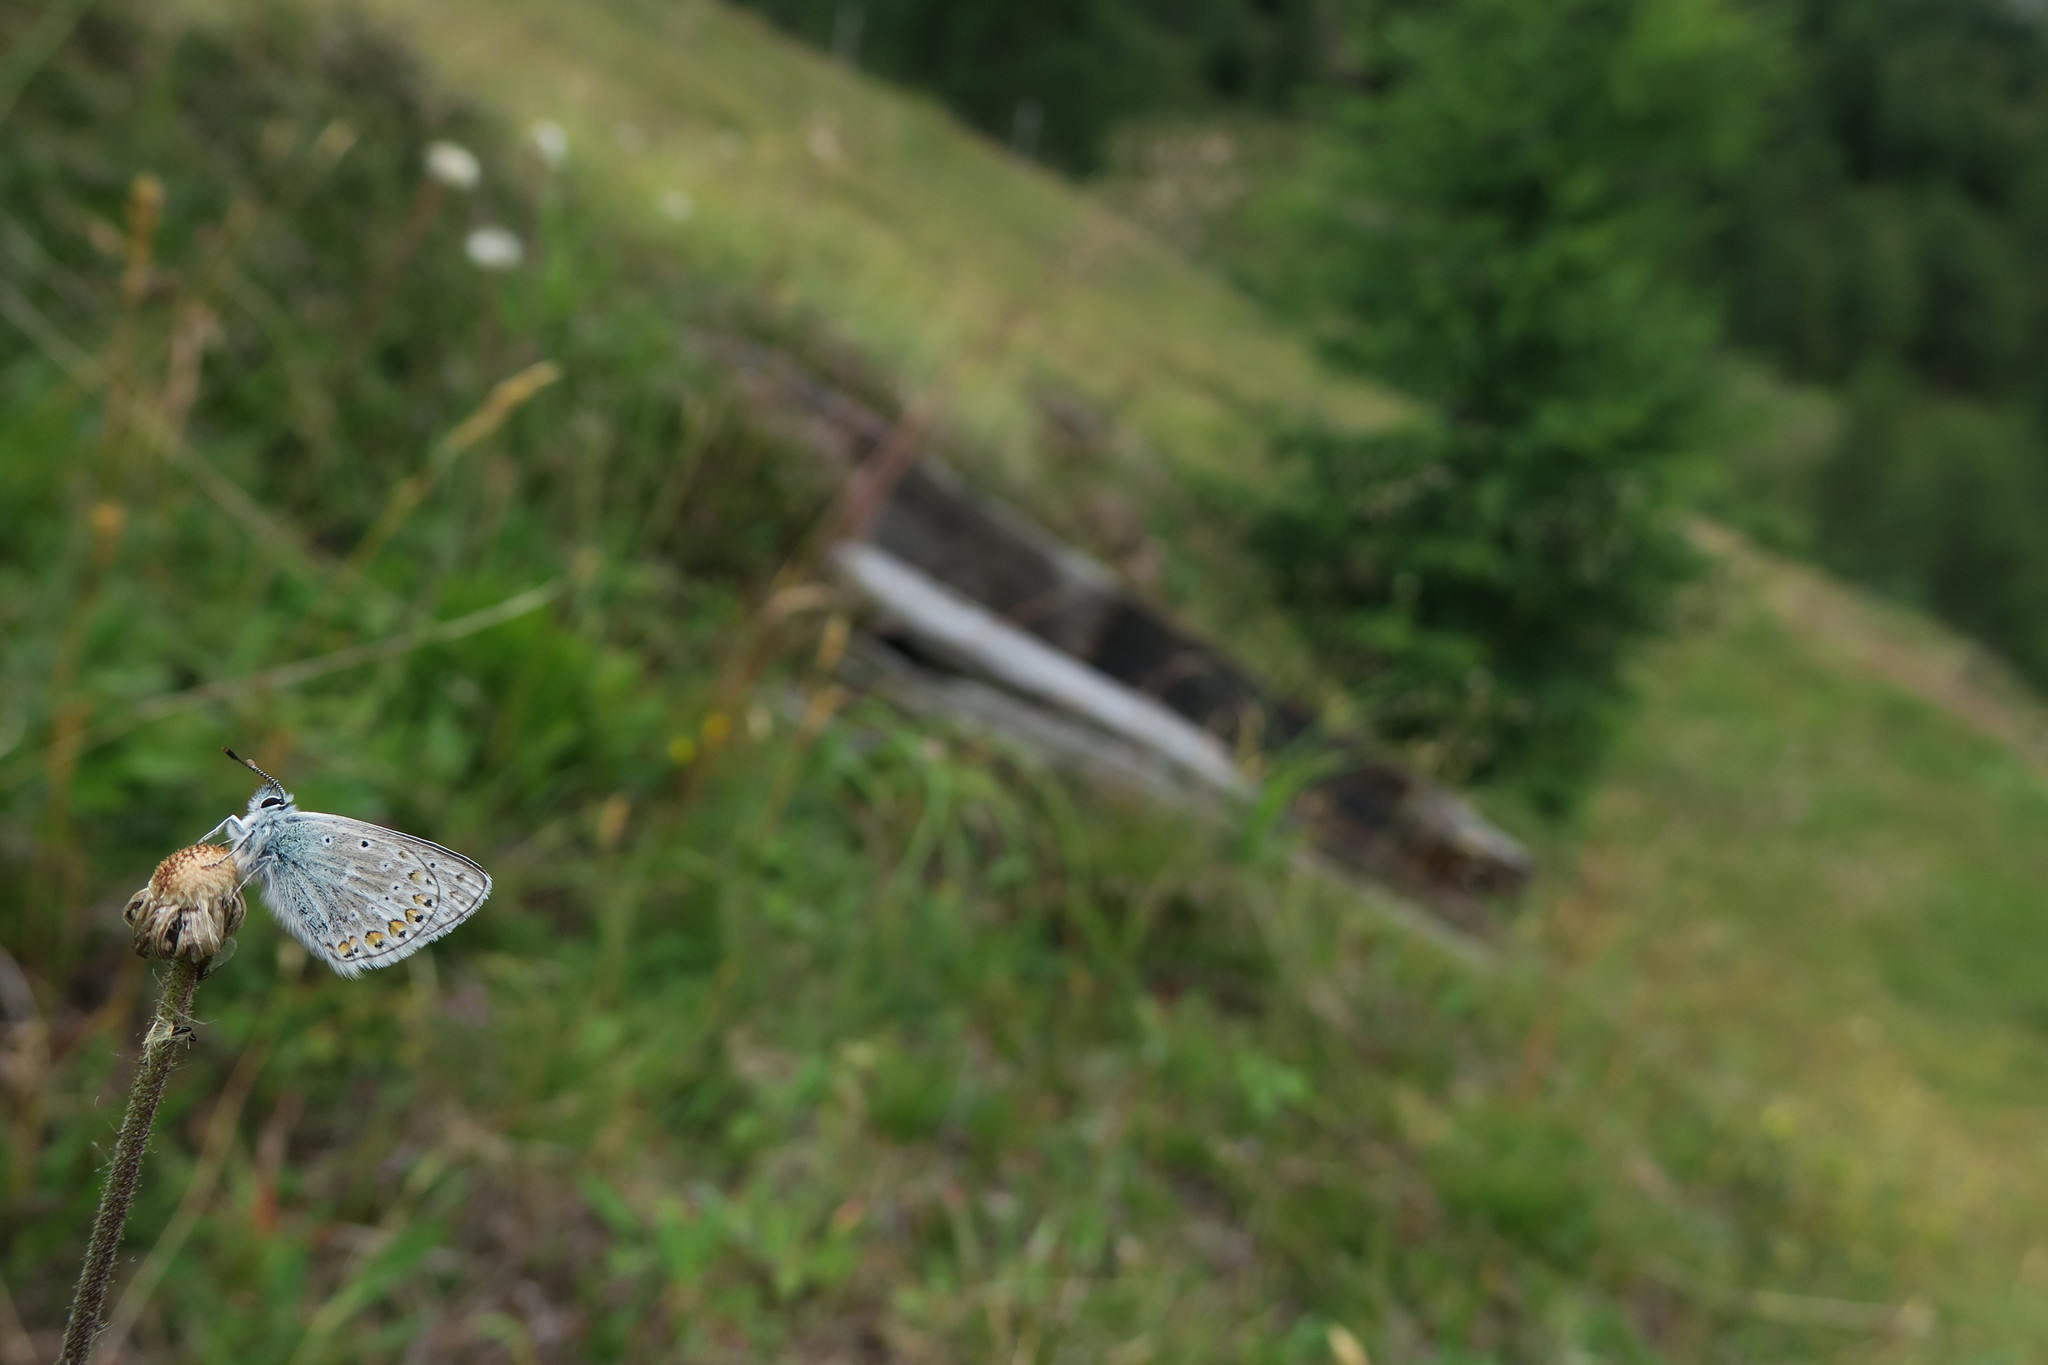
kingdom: Animalia
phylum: Arthropoda
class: Insecta
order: Lepidoptera
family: Lycaenidae
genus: Polyommatus
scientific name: Polyommatus eros
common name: Eros blue
